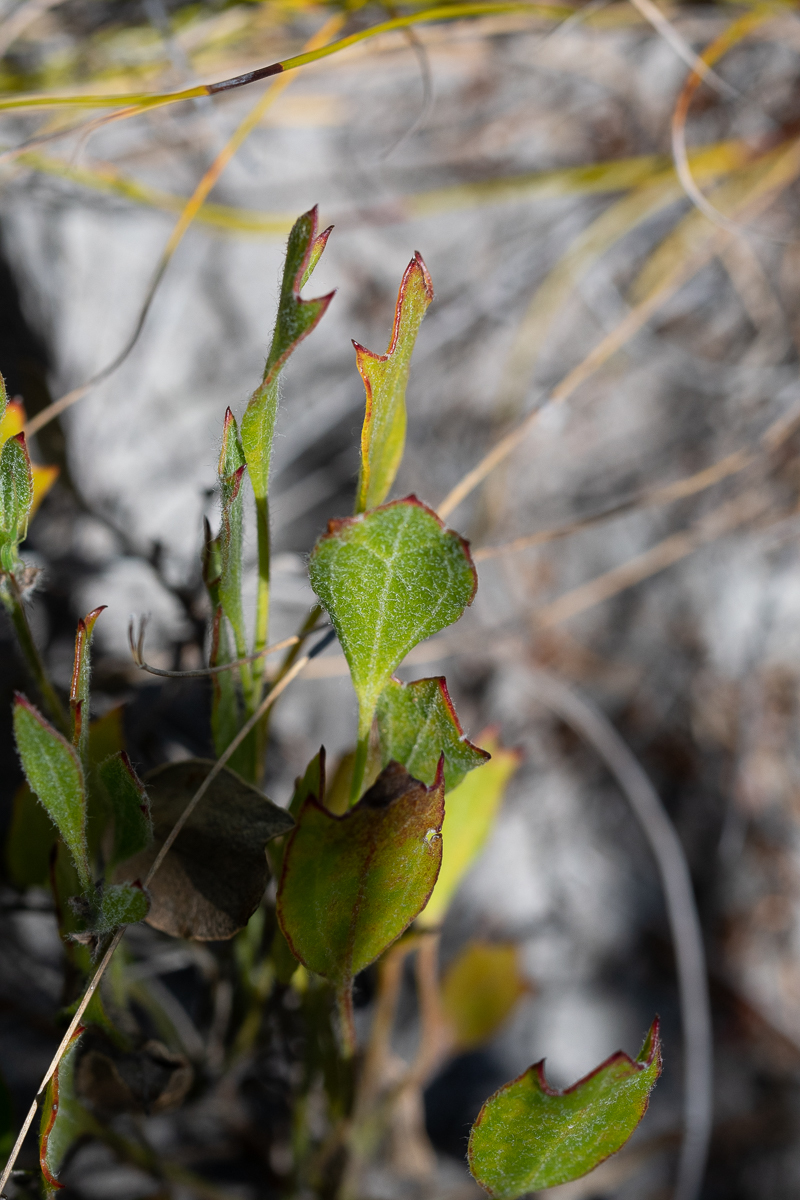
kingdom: Plantae
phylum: Tracheophyta
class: Magnoliopsida
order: Apiales
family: Apiaceae
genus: Centella
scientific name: Centella triloba
